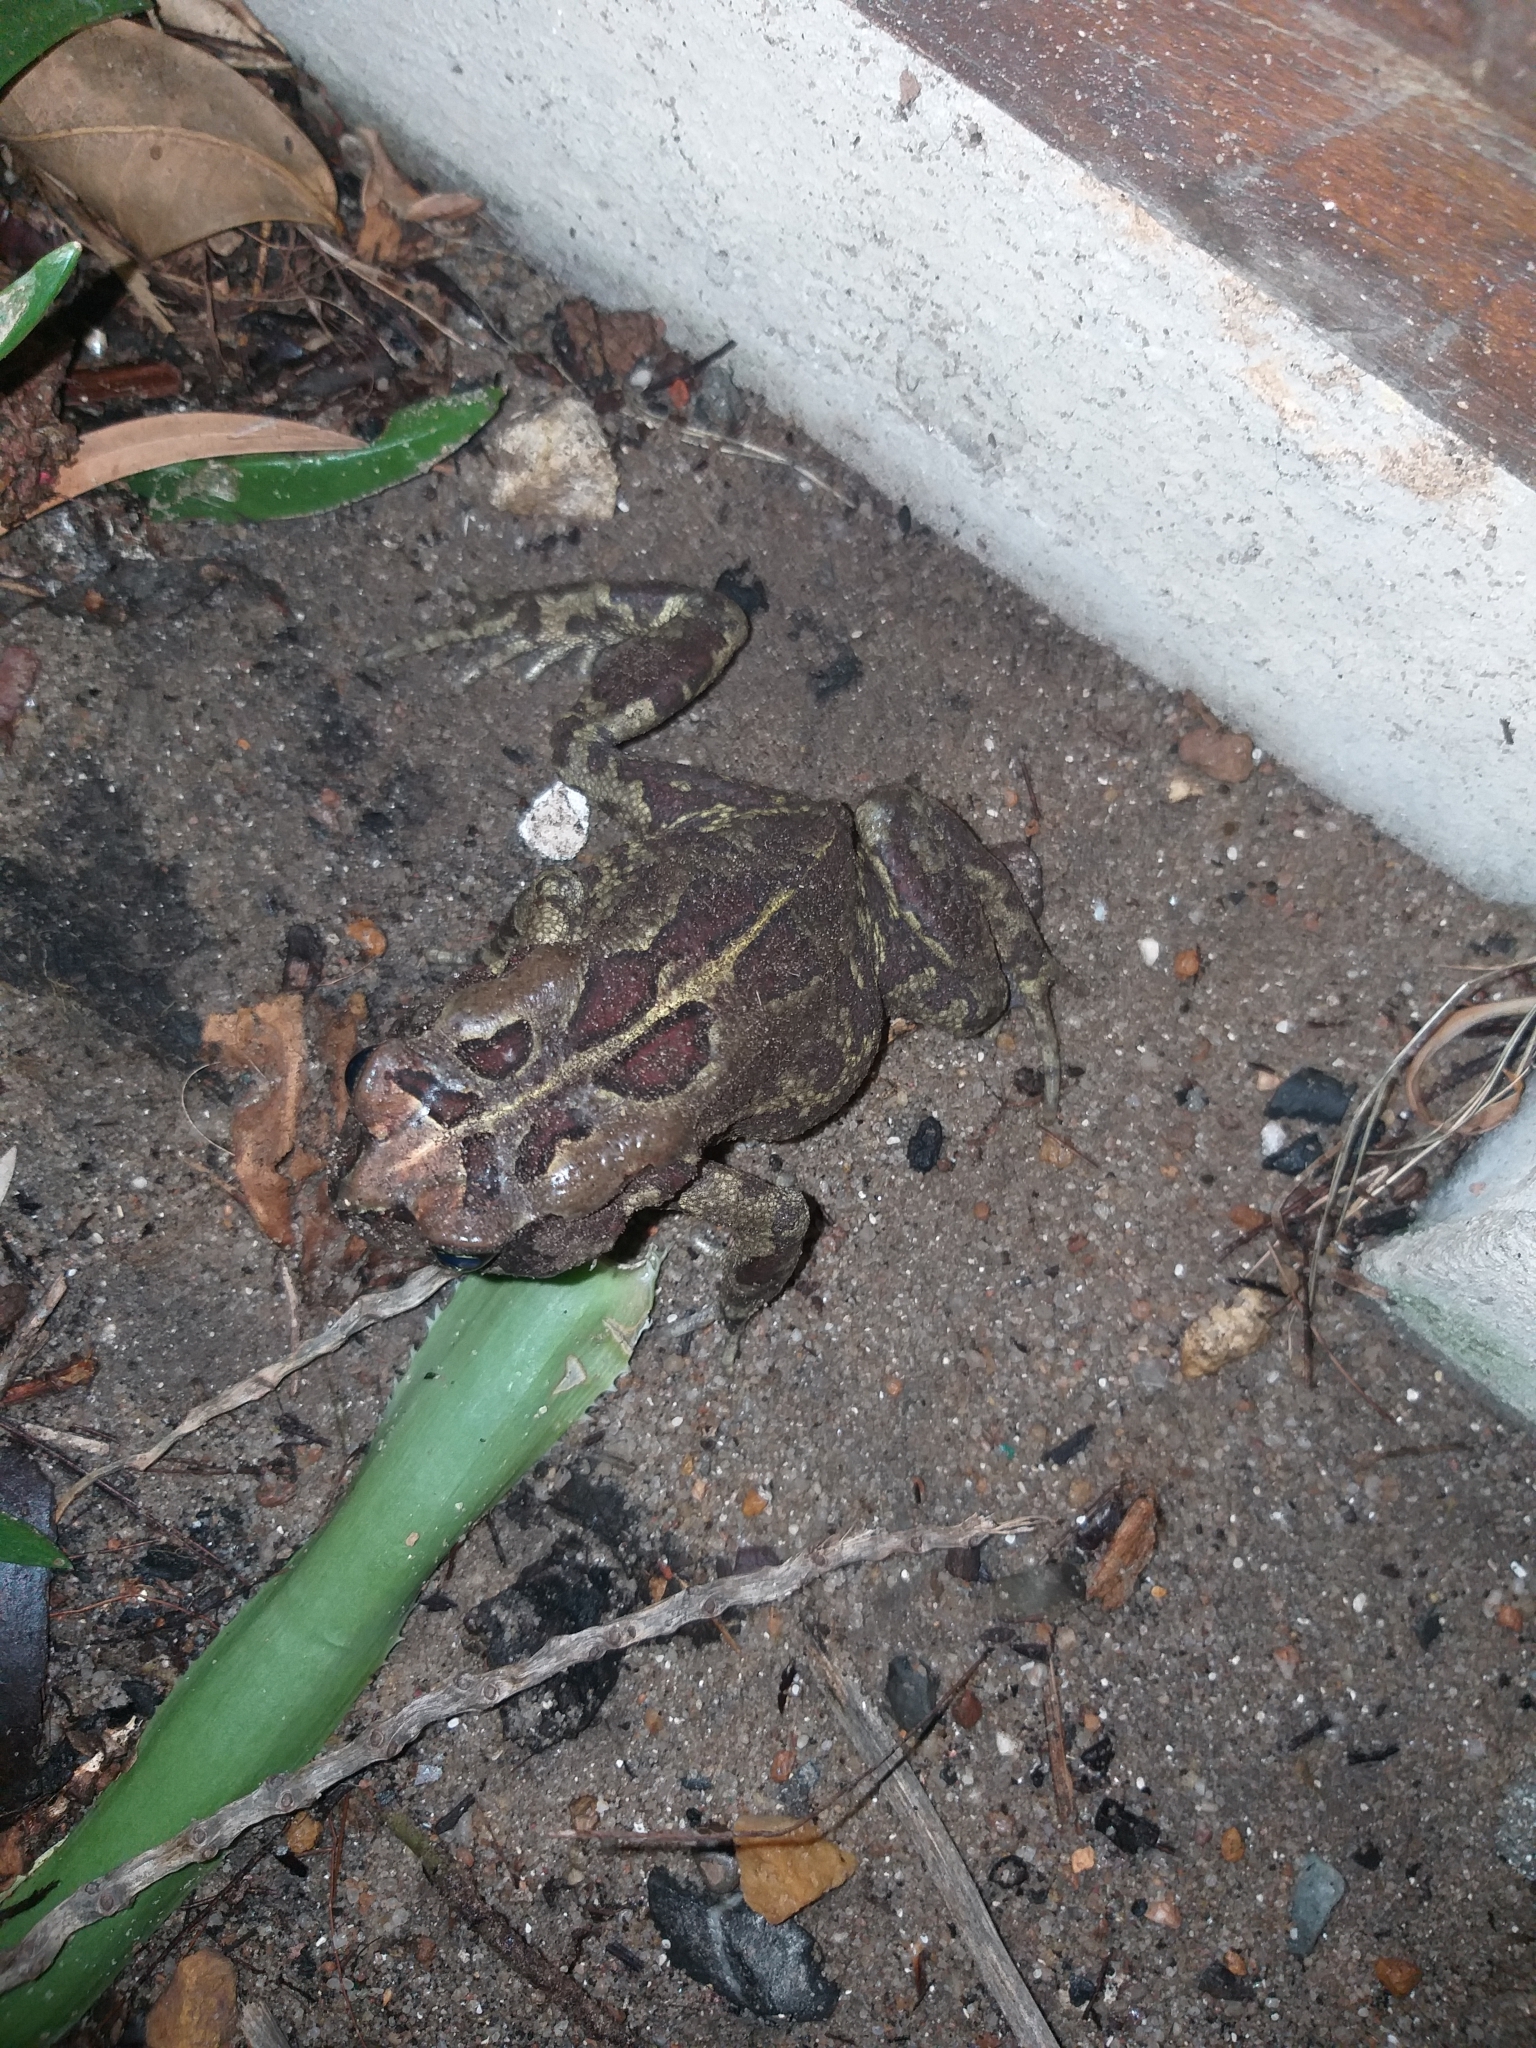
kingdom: Animalia
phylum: Chordata
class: Amphibia
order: Anura
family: Bufonidae
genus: Sclerophrys
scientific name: Sclerophrys pantherina
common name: Panther toad
